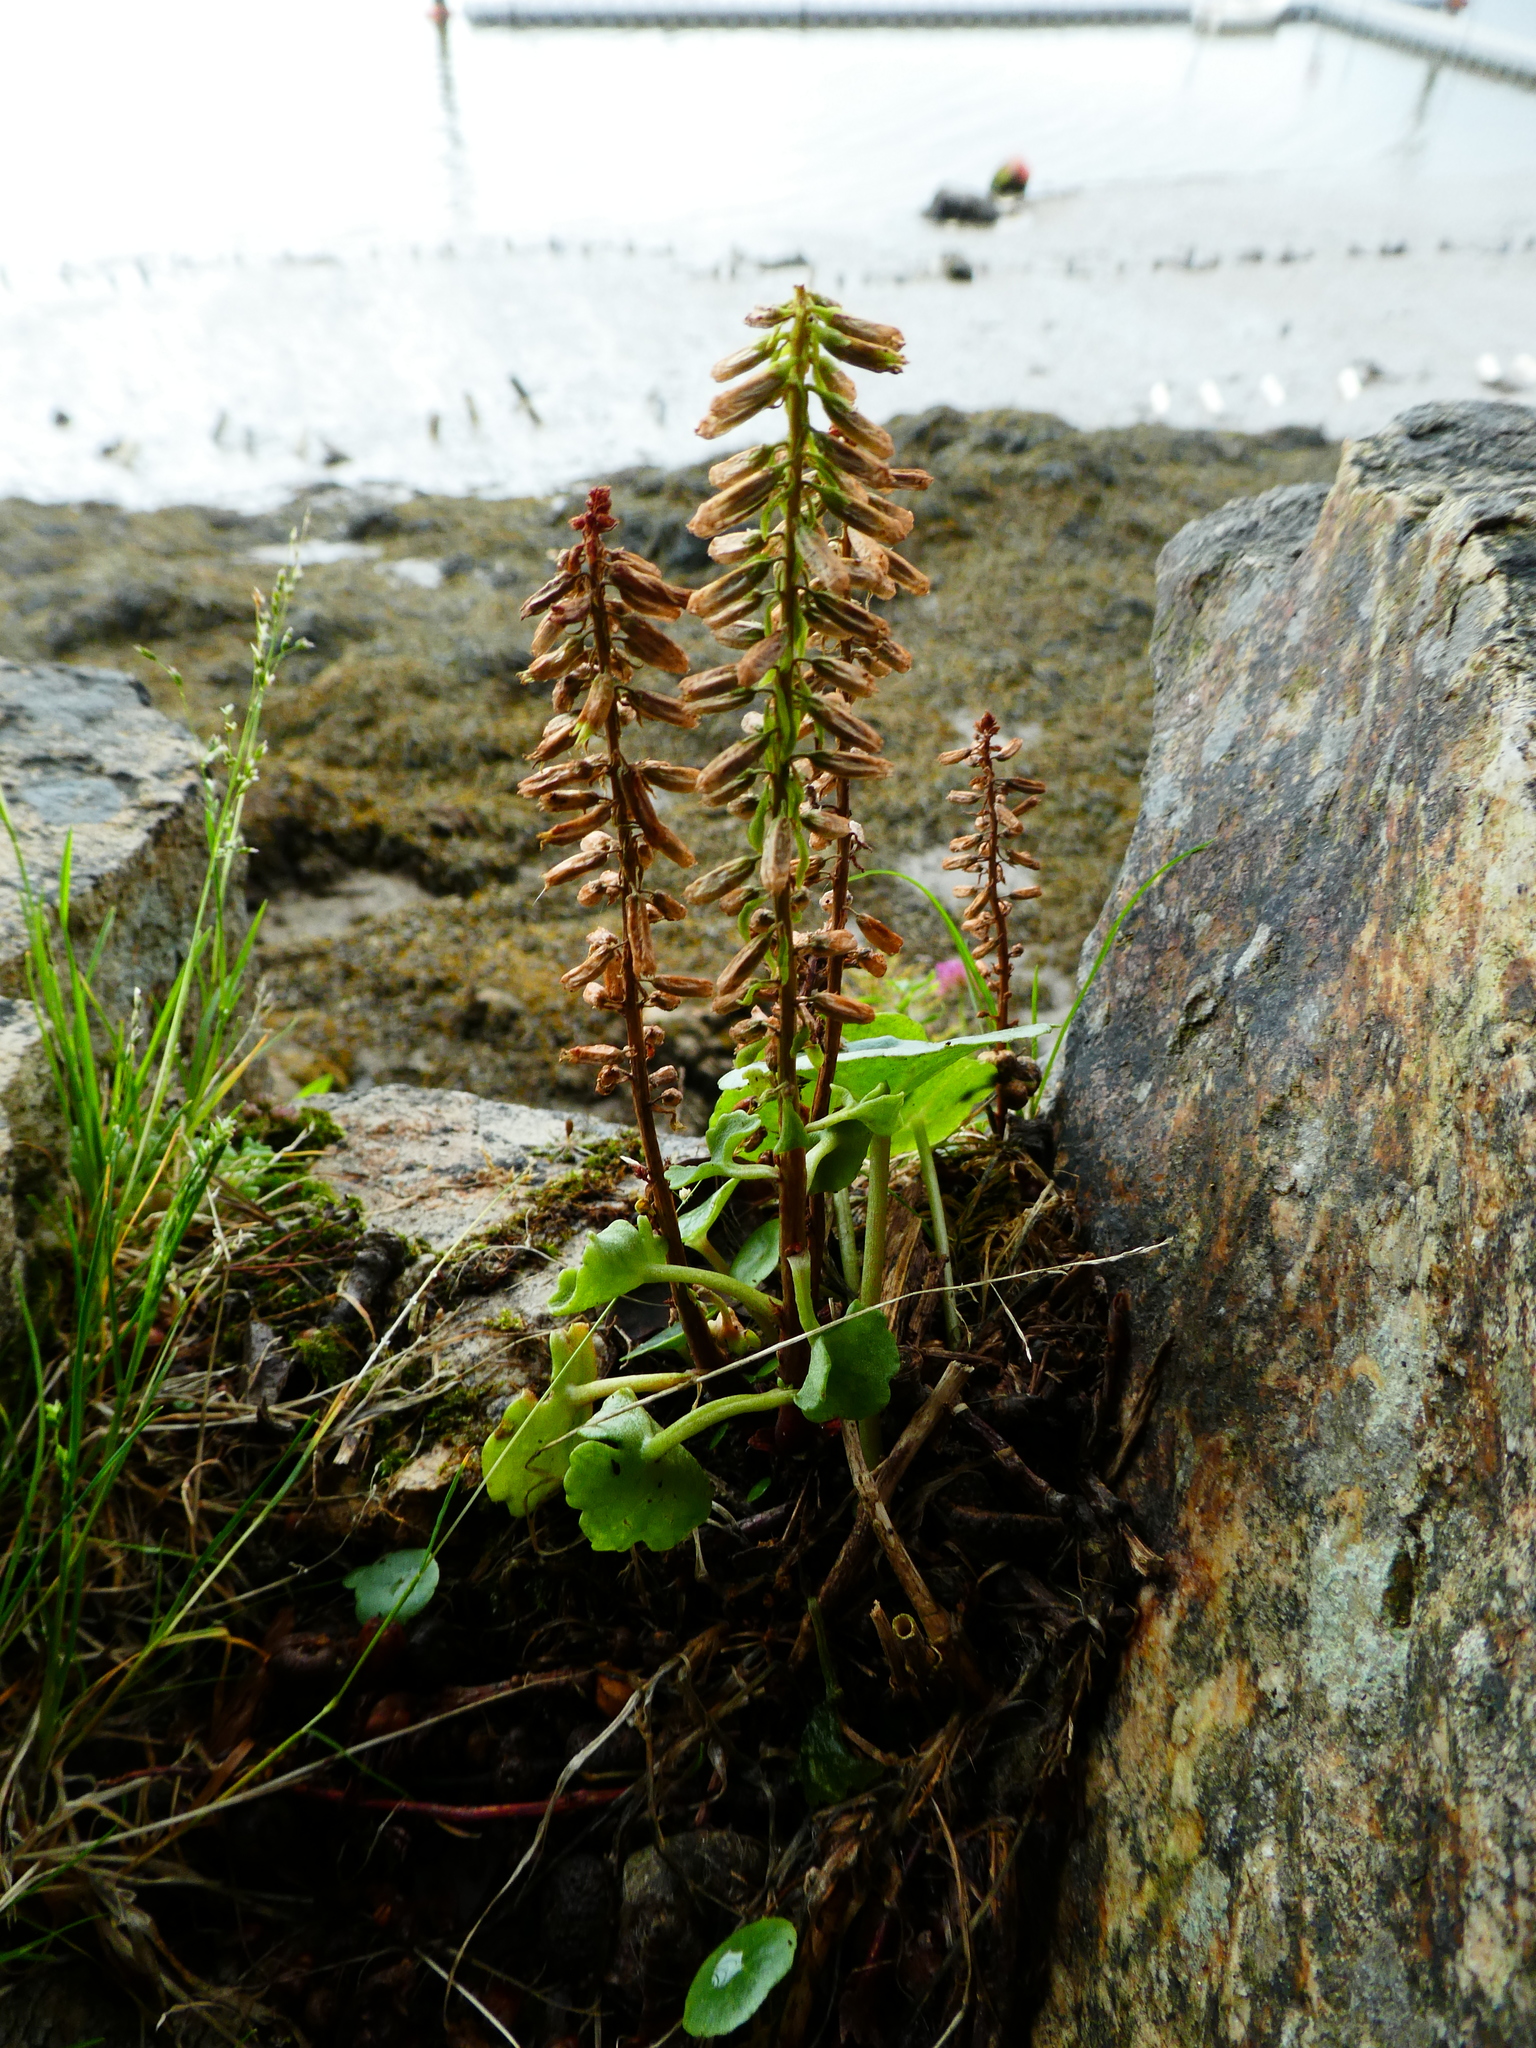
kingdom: Plantae
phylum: Tracheophyta
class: Magnoliopsida
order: Saxifragales
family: Crassulaceae
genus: Umbilicus
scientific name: Umbilicus rupestris
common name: Navelwort
